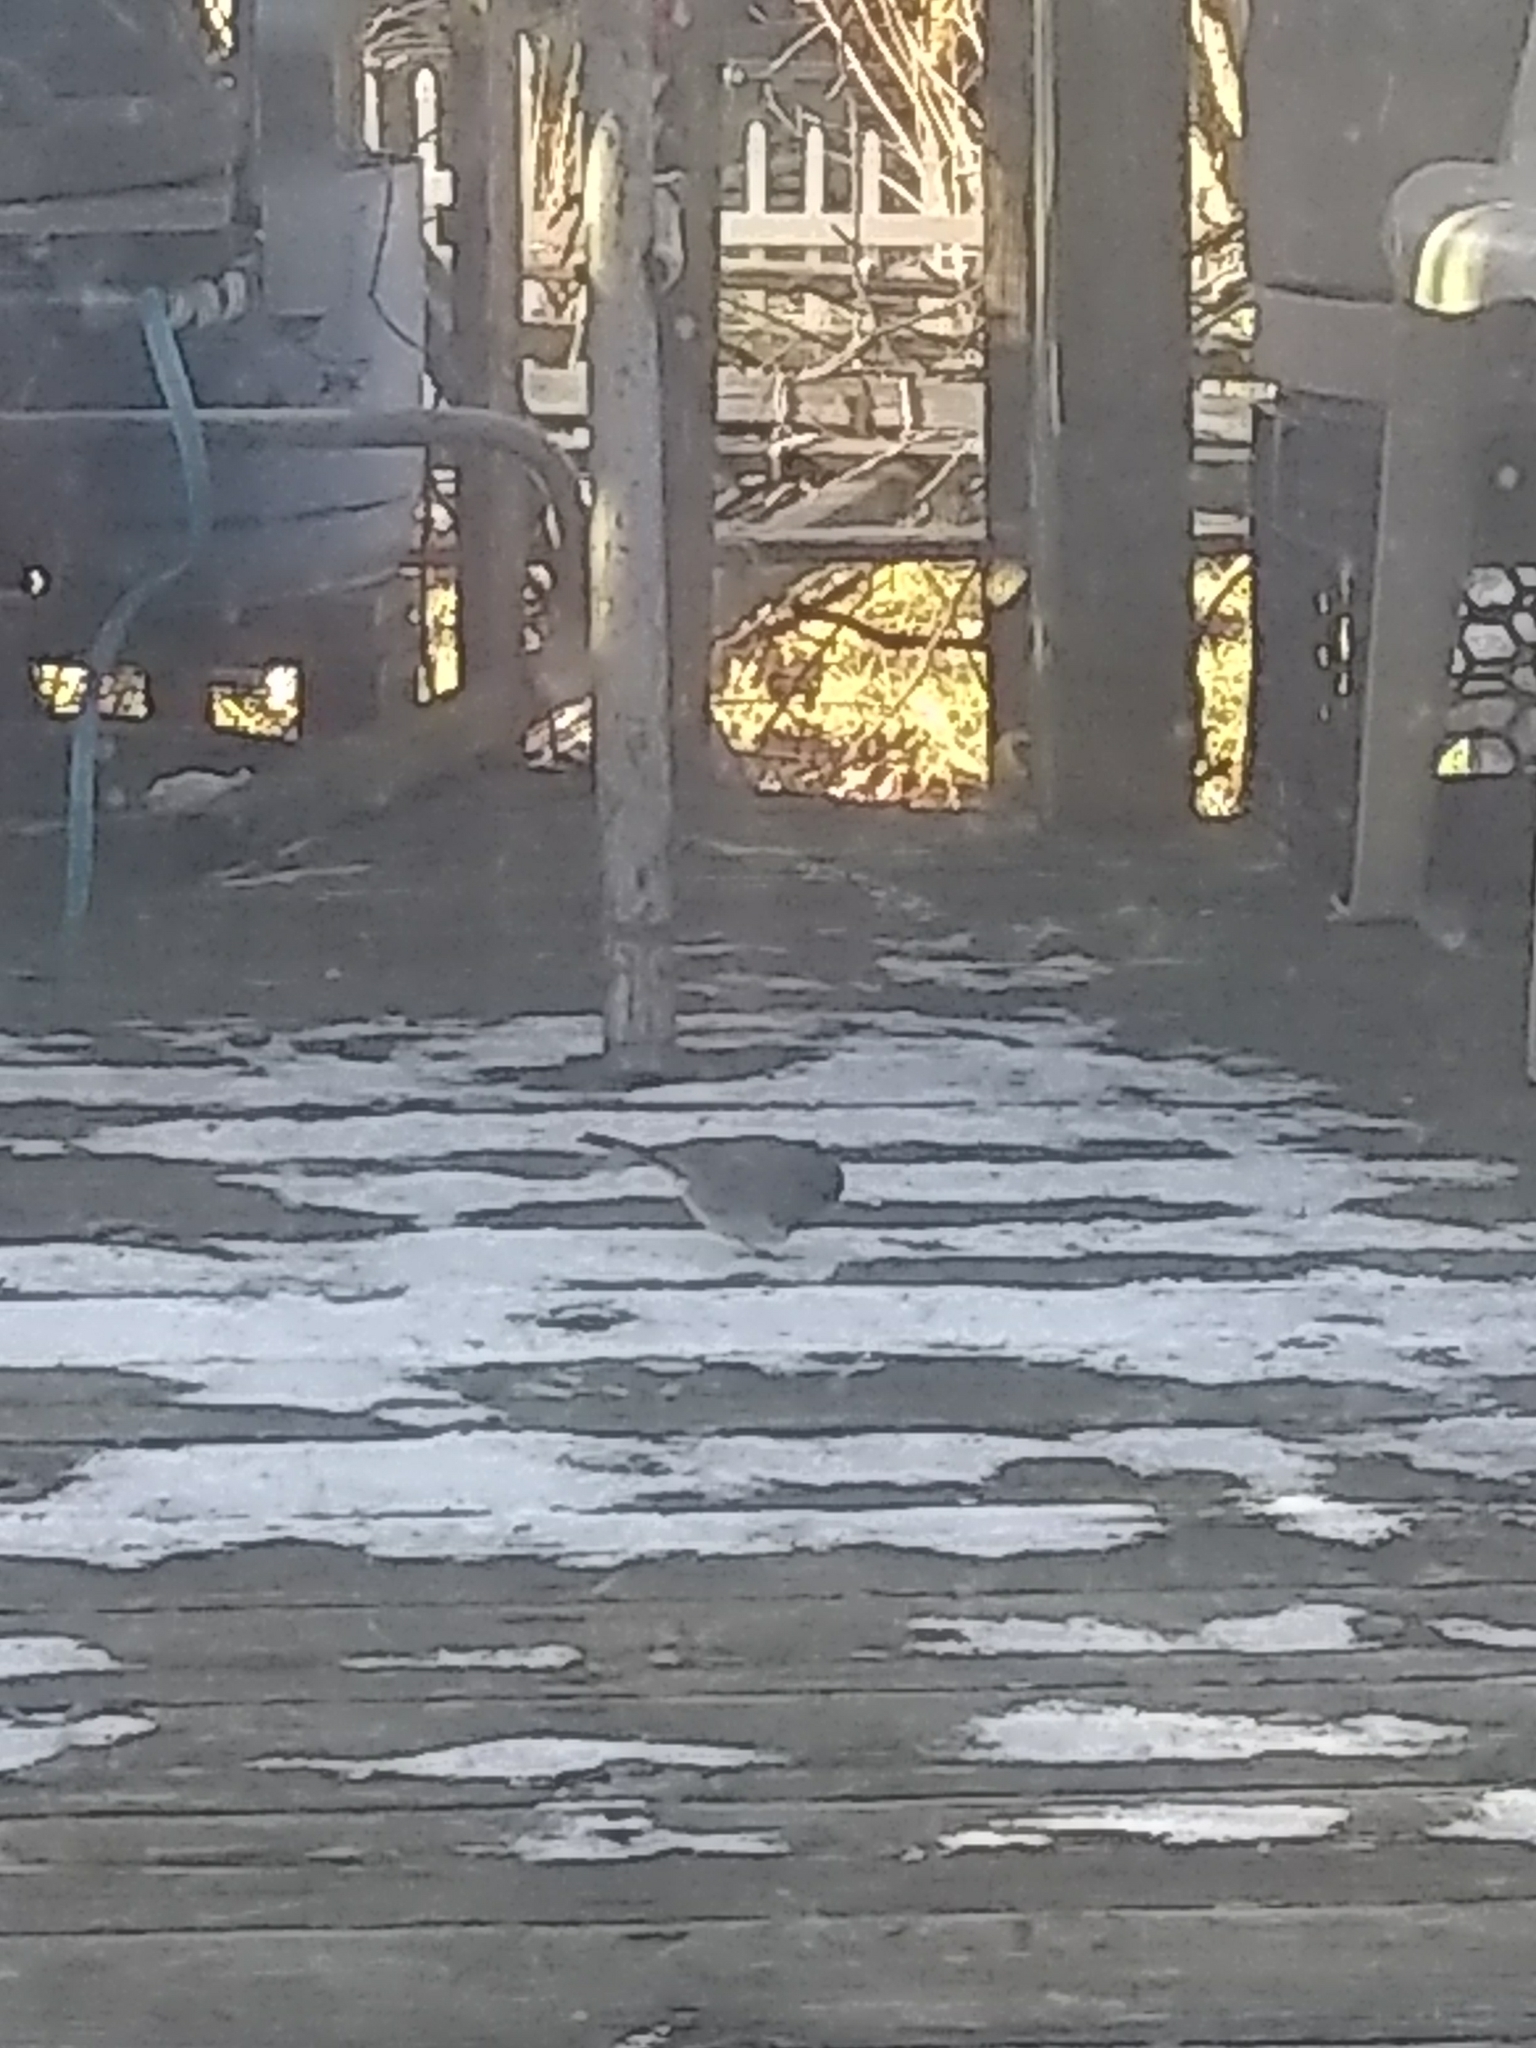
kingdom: Animalia
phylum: Chordata
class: Aves
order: Passeriformes
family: Passerellidae
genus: Junco
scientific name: Junco hyemalis
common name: Dark-eyed junco
